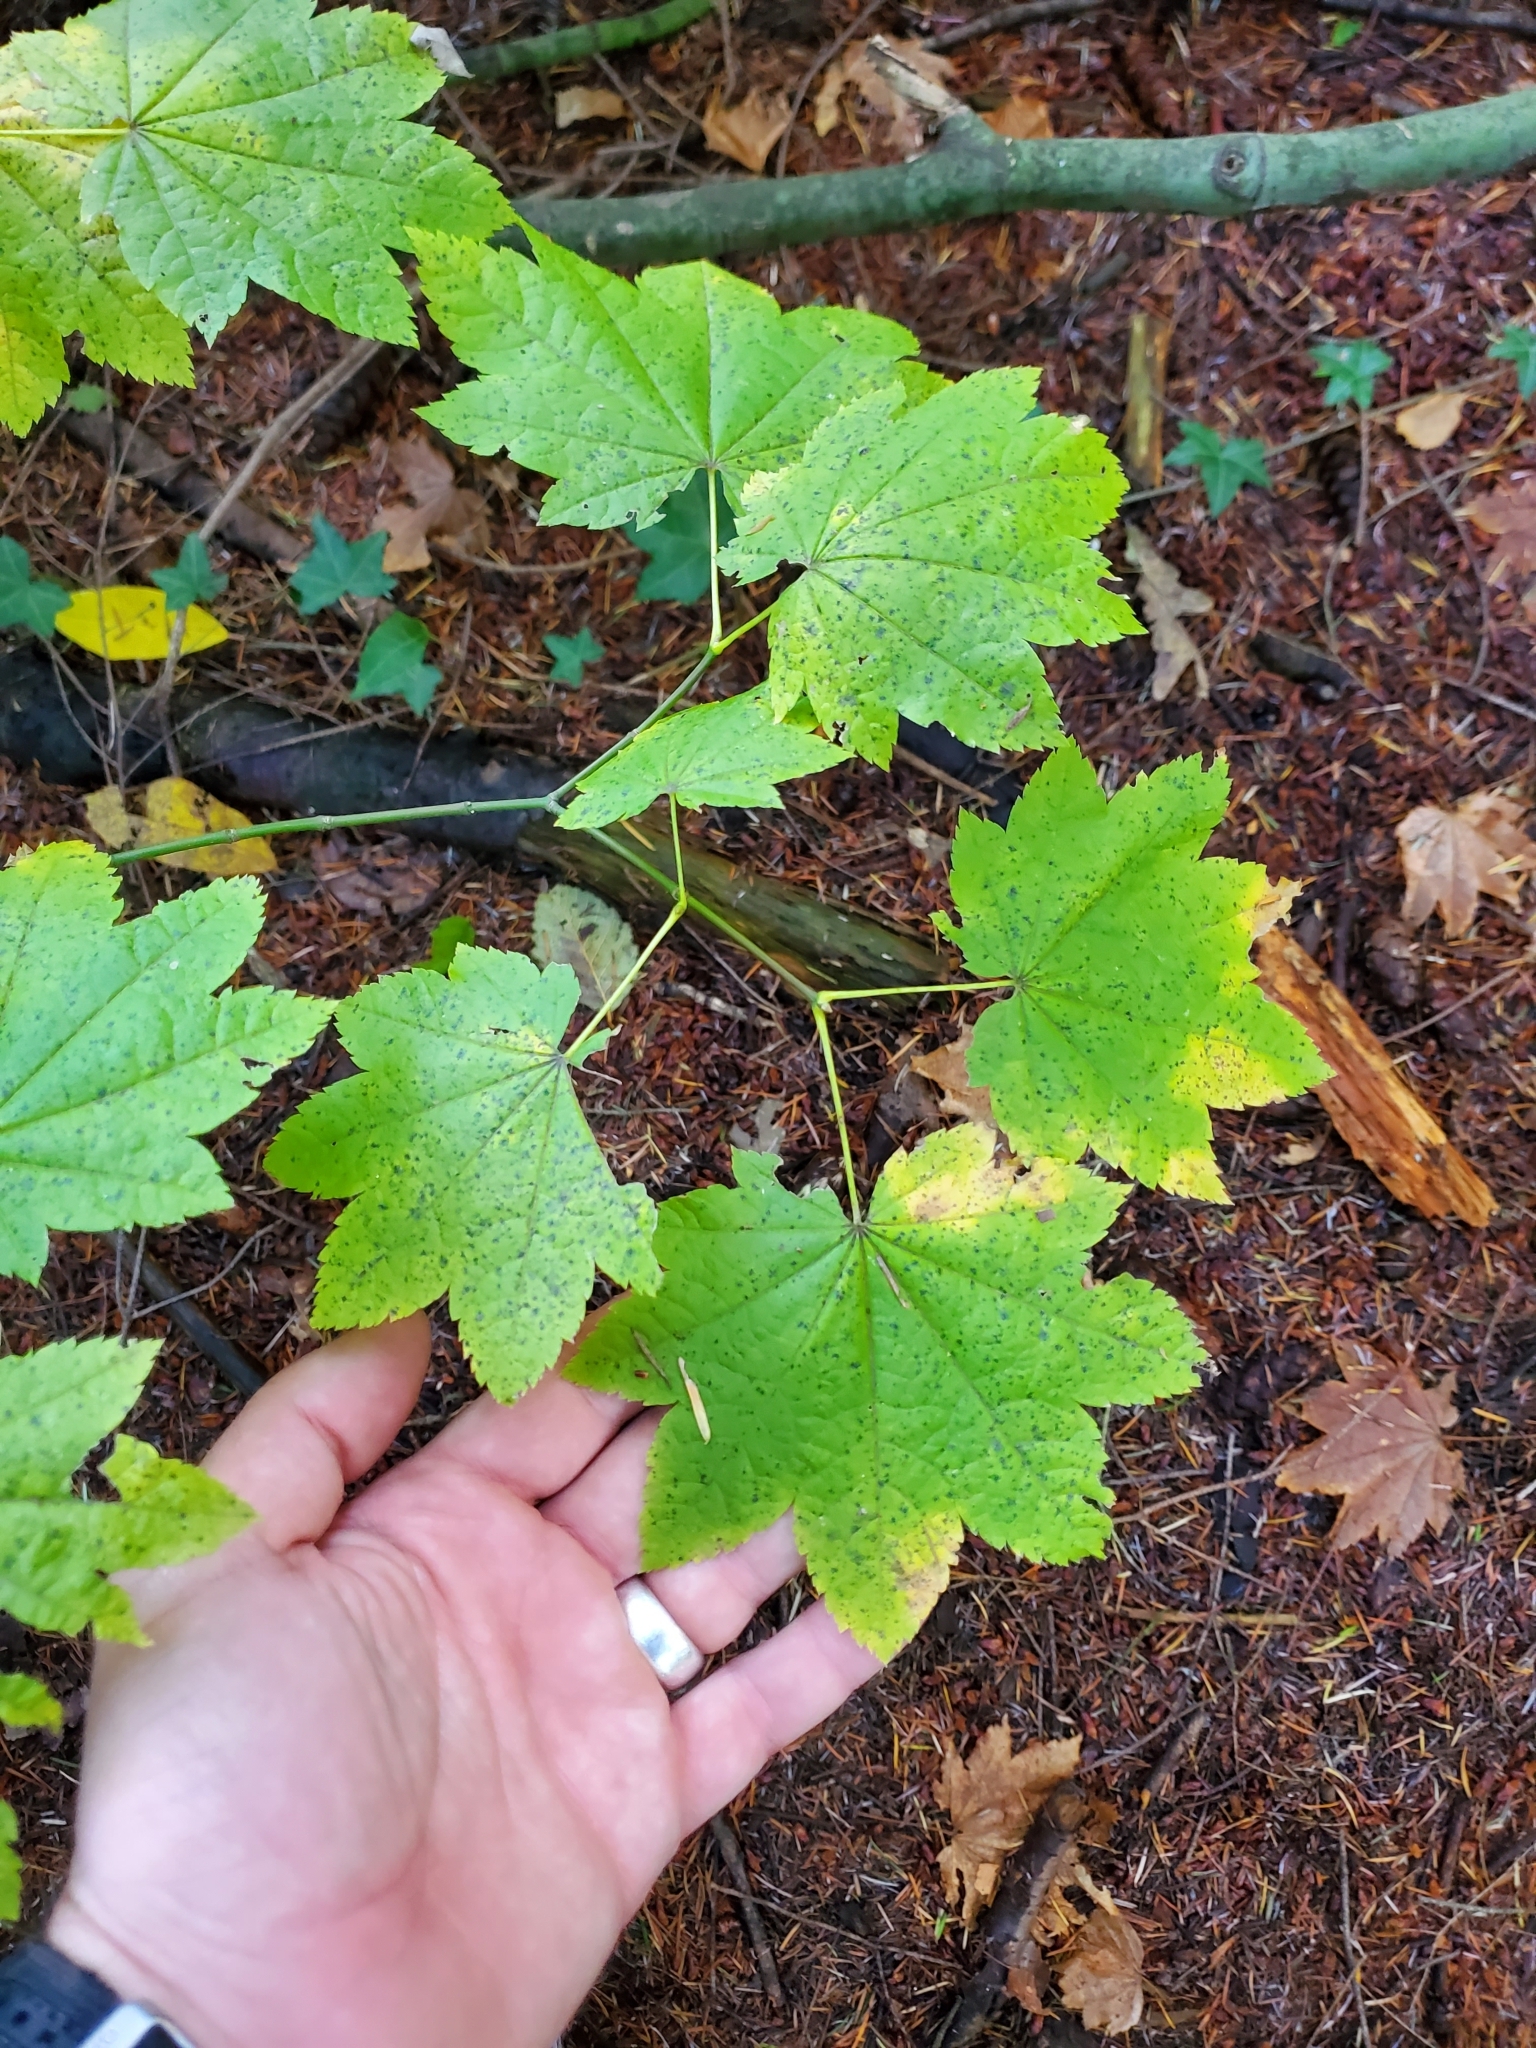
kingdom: Plantae
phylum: Tracheophyta
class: Magnoliopsida
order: Sapindales
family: Sapindaceae
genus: Acer
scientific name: Acer circinatum
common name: Vine maple
